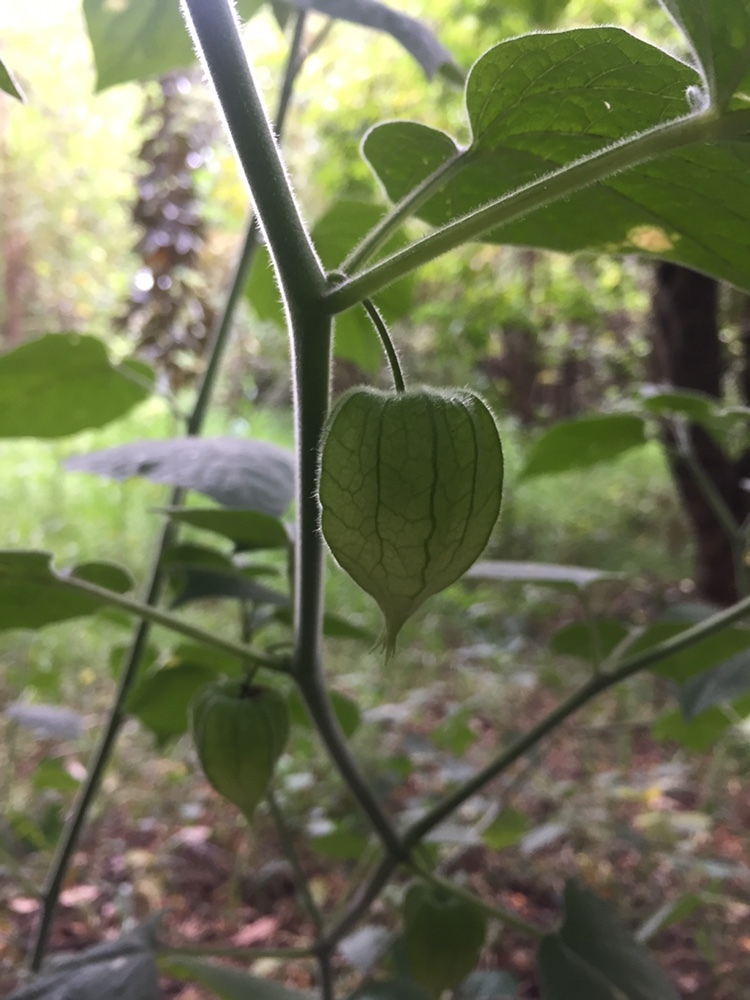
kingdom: Plantae
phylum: Tracheophyta
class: Magnoliopsida
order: Solanales
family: Solanaceae
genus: Physalis
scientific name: Physalis peruviana
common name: Cape-gooseberry
